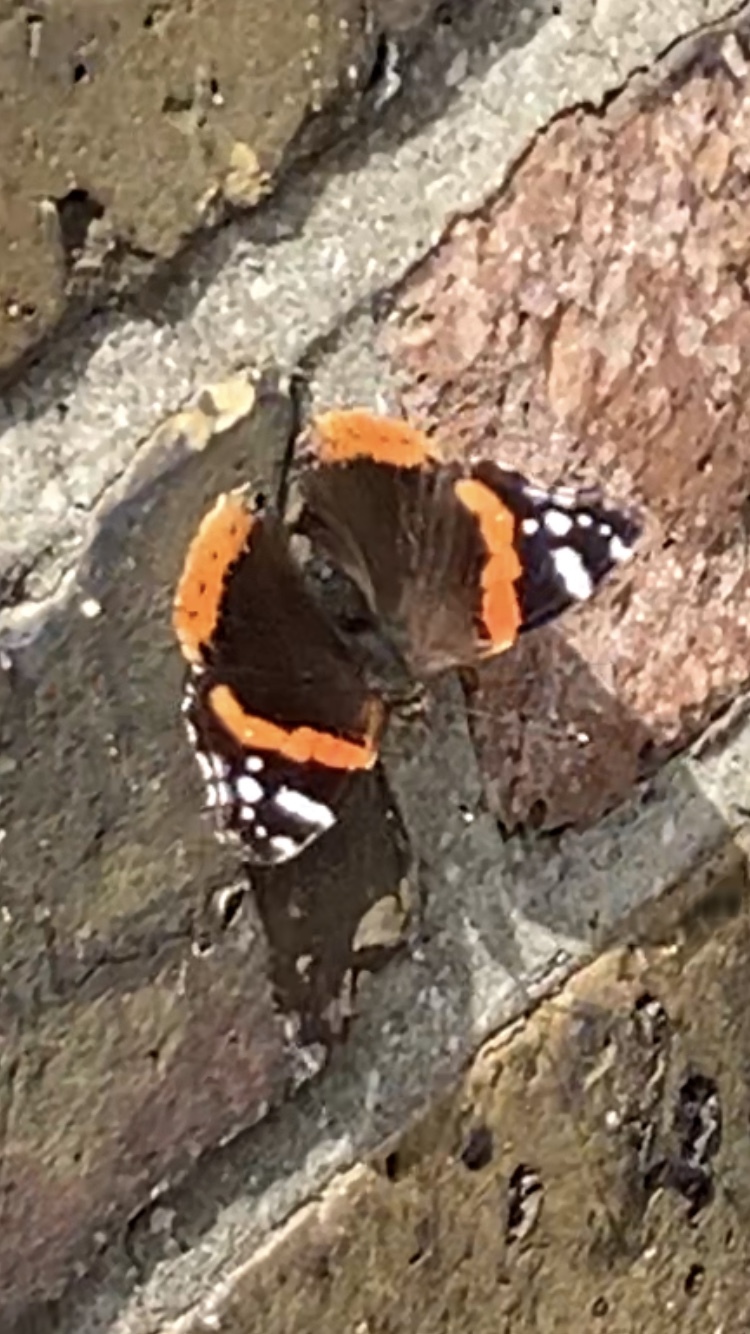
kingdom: Animalia
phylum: Arthropoda
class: Insecta
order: Lepidoptera
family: Nymphalidae
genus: Vanessa
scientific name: Vanessa atalanta
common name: Red admiral
